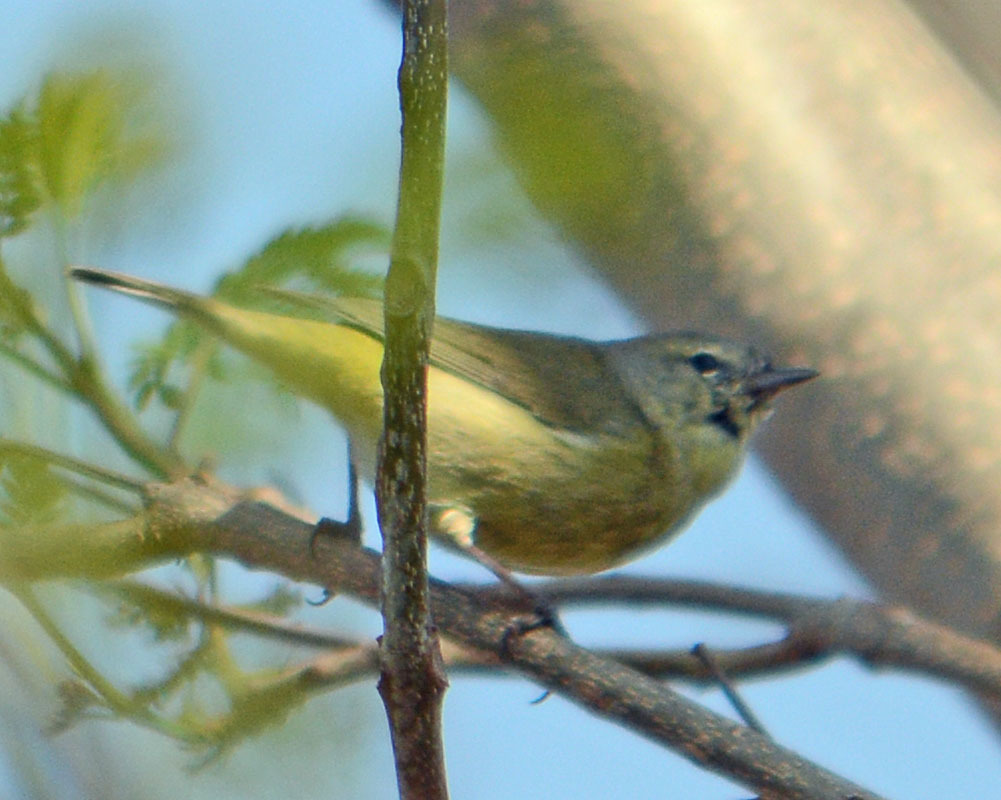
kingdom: Animalia
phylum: Chordata
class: Aves
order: Passeriformes
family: Parulidae
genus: Leiothlypis
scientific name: Leiothlypis celata
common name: Orange-crowned warbler
